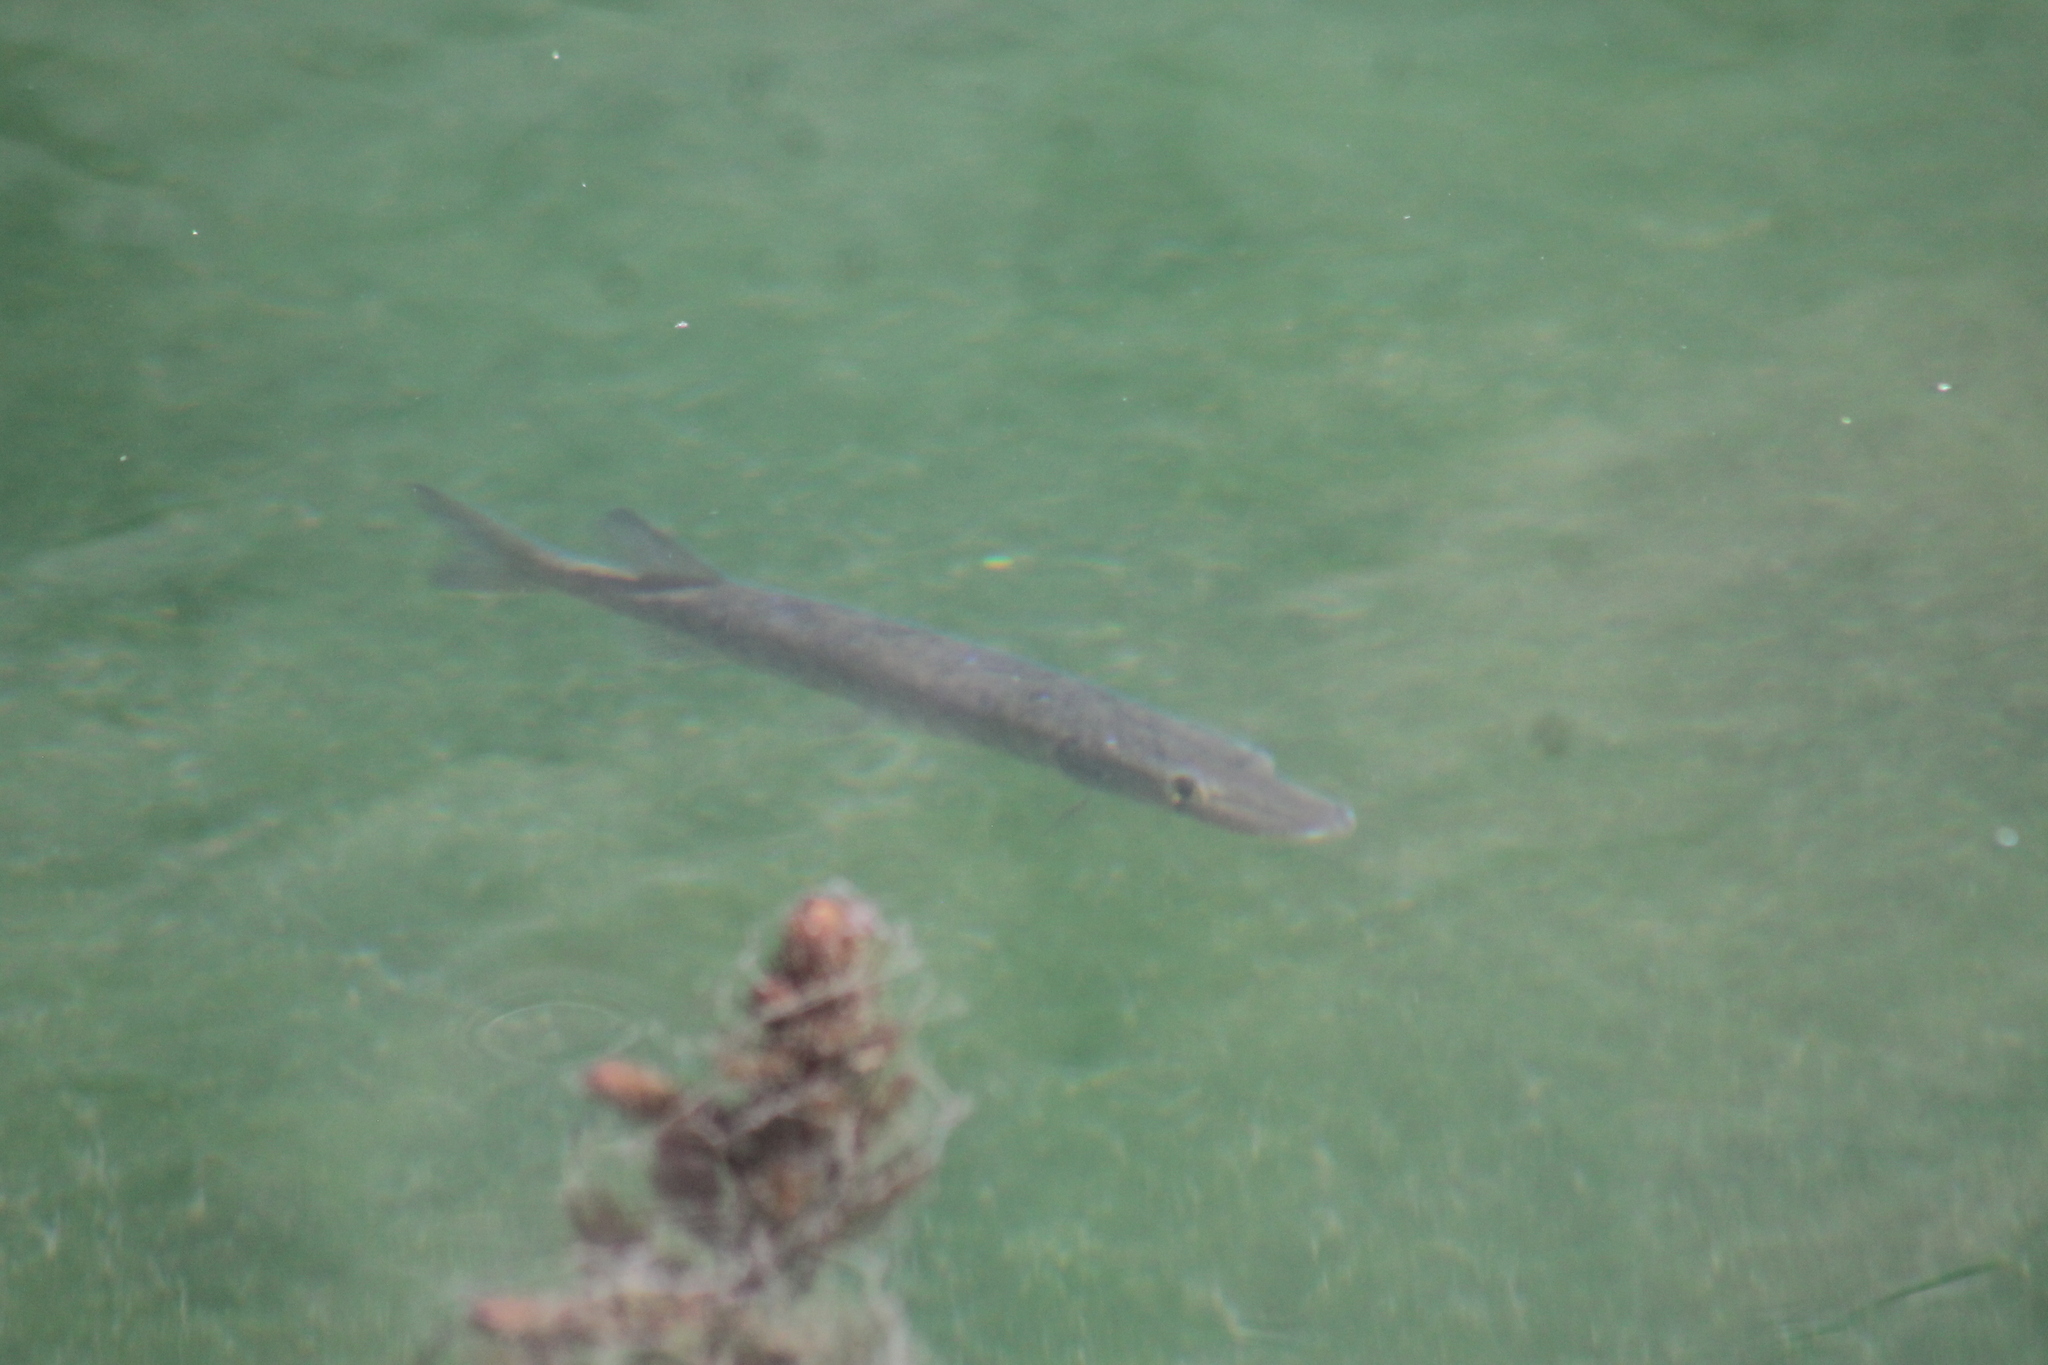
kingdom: Animalia
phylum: Chordata
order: Esociformes
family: Esocidae
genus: Esox
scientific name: Esox americanus
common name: Redfin pickerel
